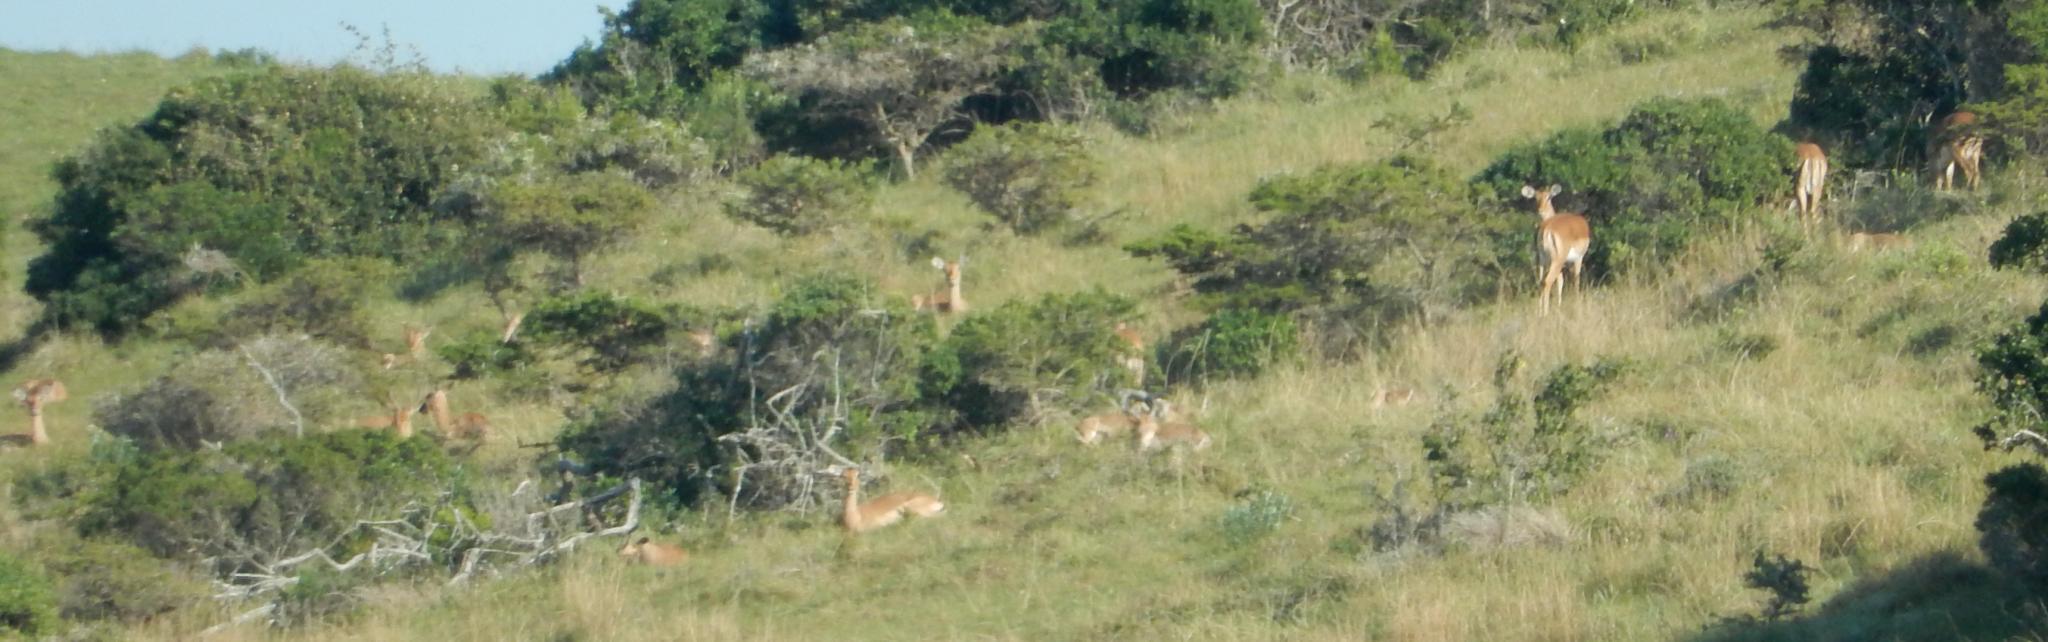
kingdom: Animalia
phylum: Chordata
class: Mammalia
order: Artiodactyla
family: Bovidae
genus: Aepyceros
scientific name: Aepyceros melampus
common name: Impala
